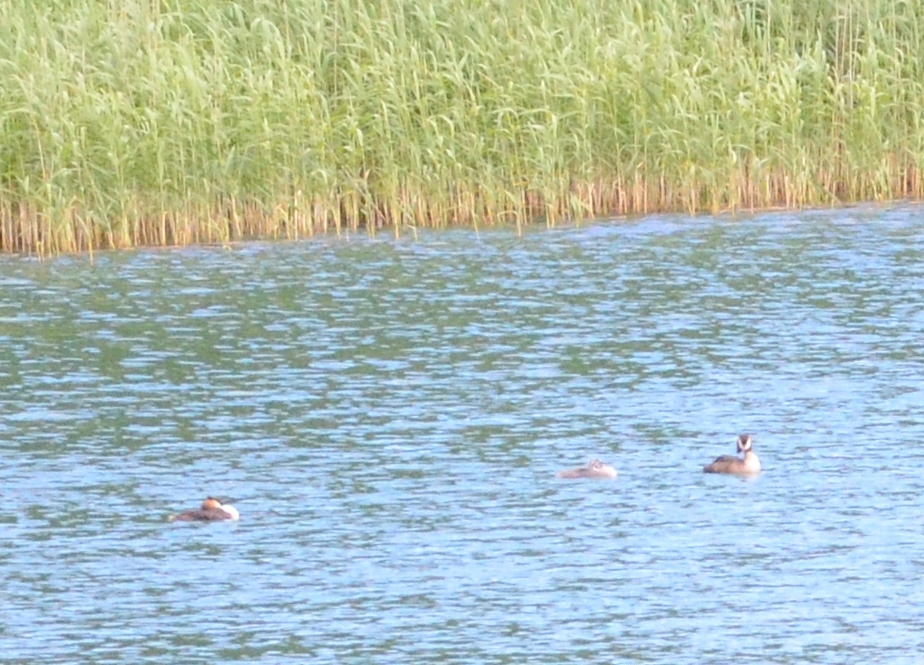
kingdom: Animalia
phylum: Chordata
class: Aves
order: Podicipediformes
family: Podicipedidae
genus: Podiceps
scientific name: Podiceps cristatus
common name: Great crested grebe
